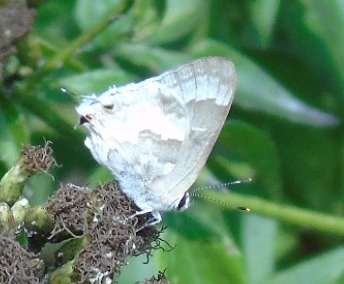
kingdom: Animalia
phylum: Arthropoda
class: Insecta
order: Lepidoptera
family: Lycaenidae
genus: Strymon
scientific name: Strymon albata
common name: White scrub-hairstreak
